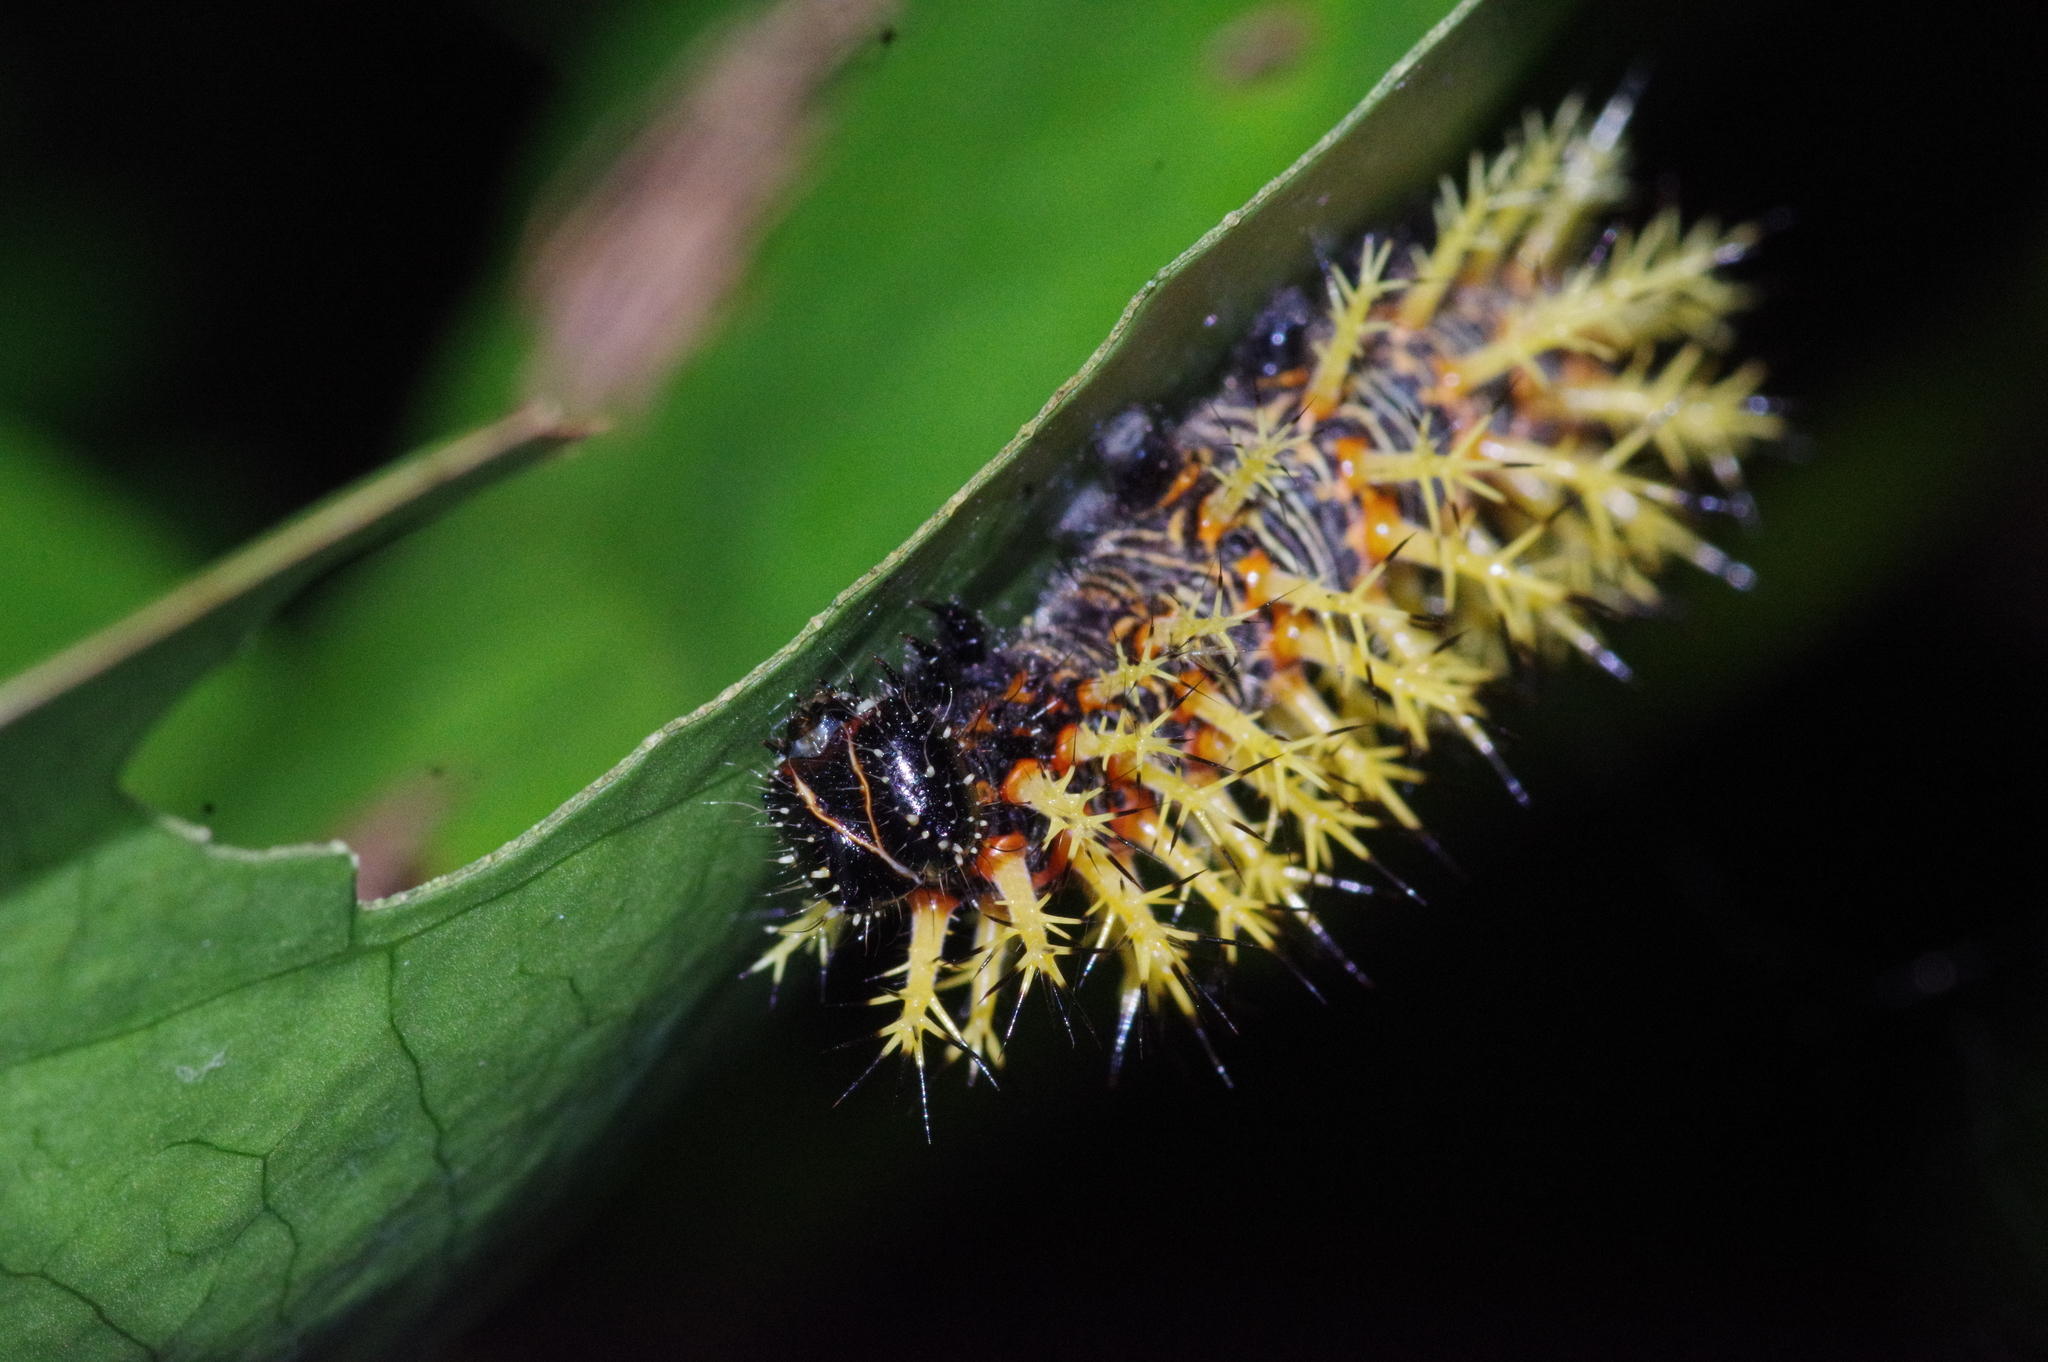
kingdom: Animalia
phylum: Arthropoda
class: Insecta
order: Lepidoptera
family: Nymphalidae
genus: Vanessa
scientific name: Vanessa Kaniska canace
